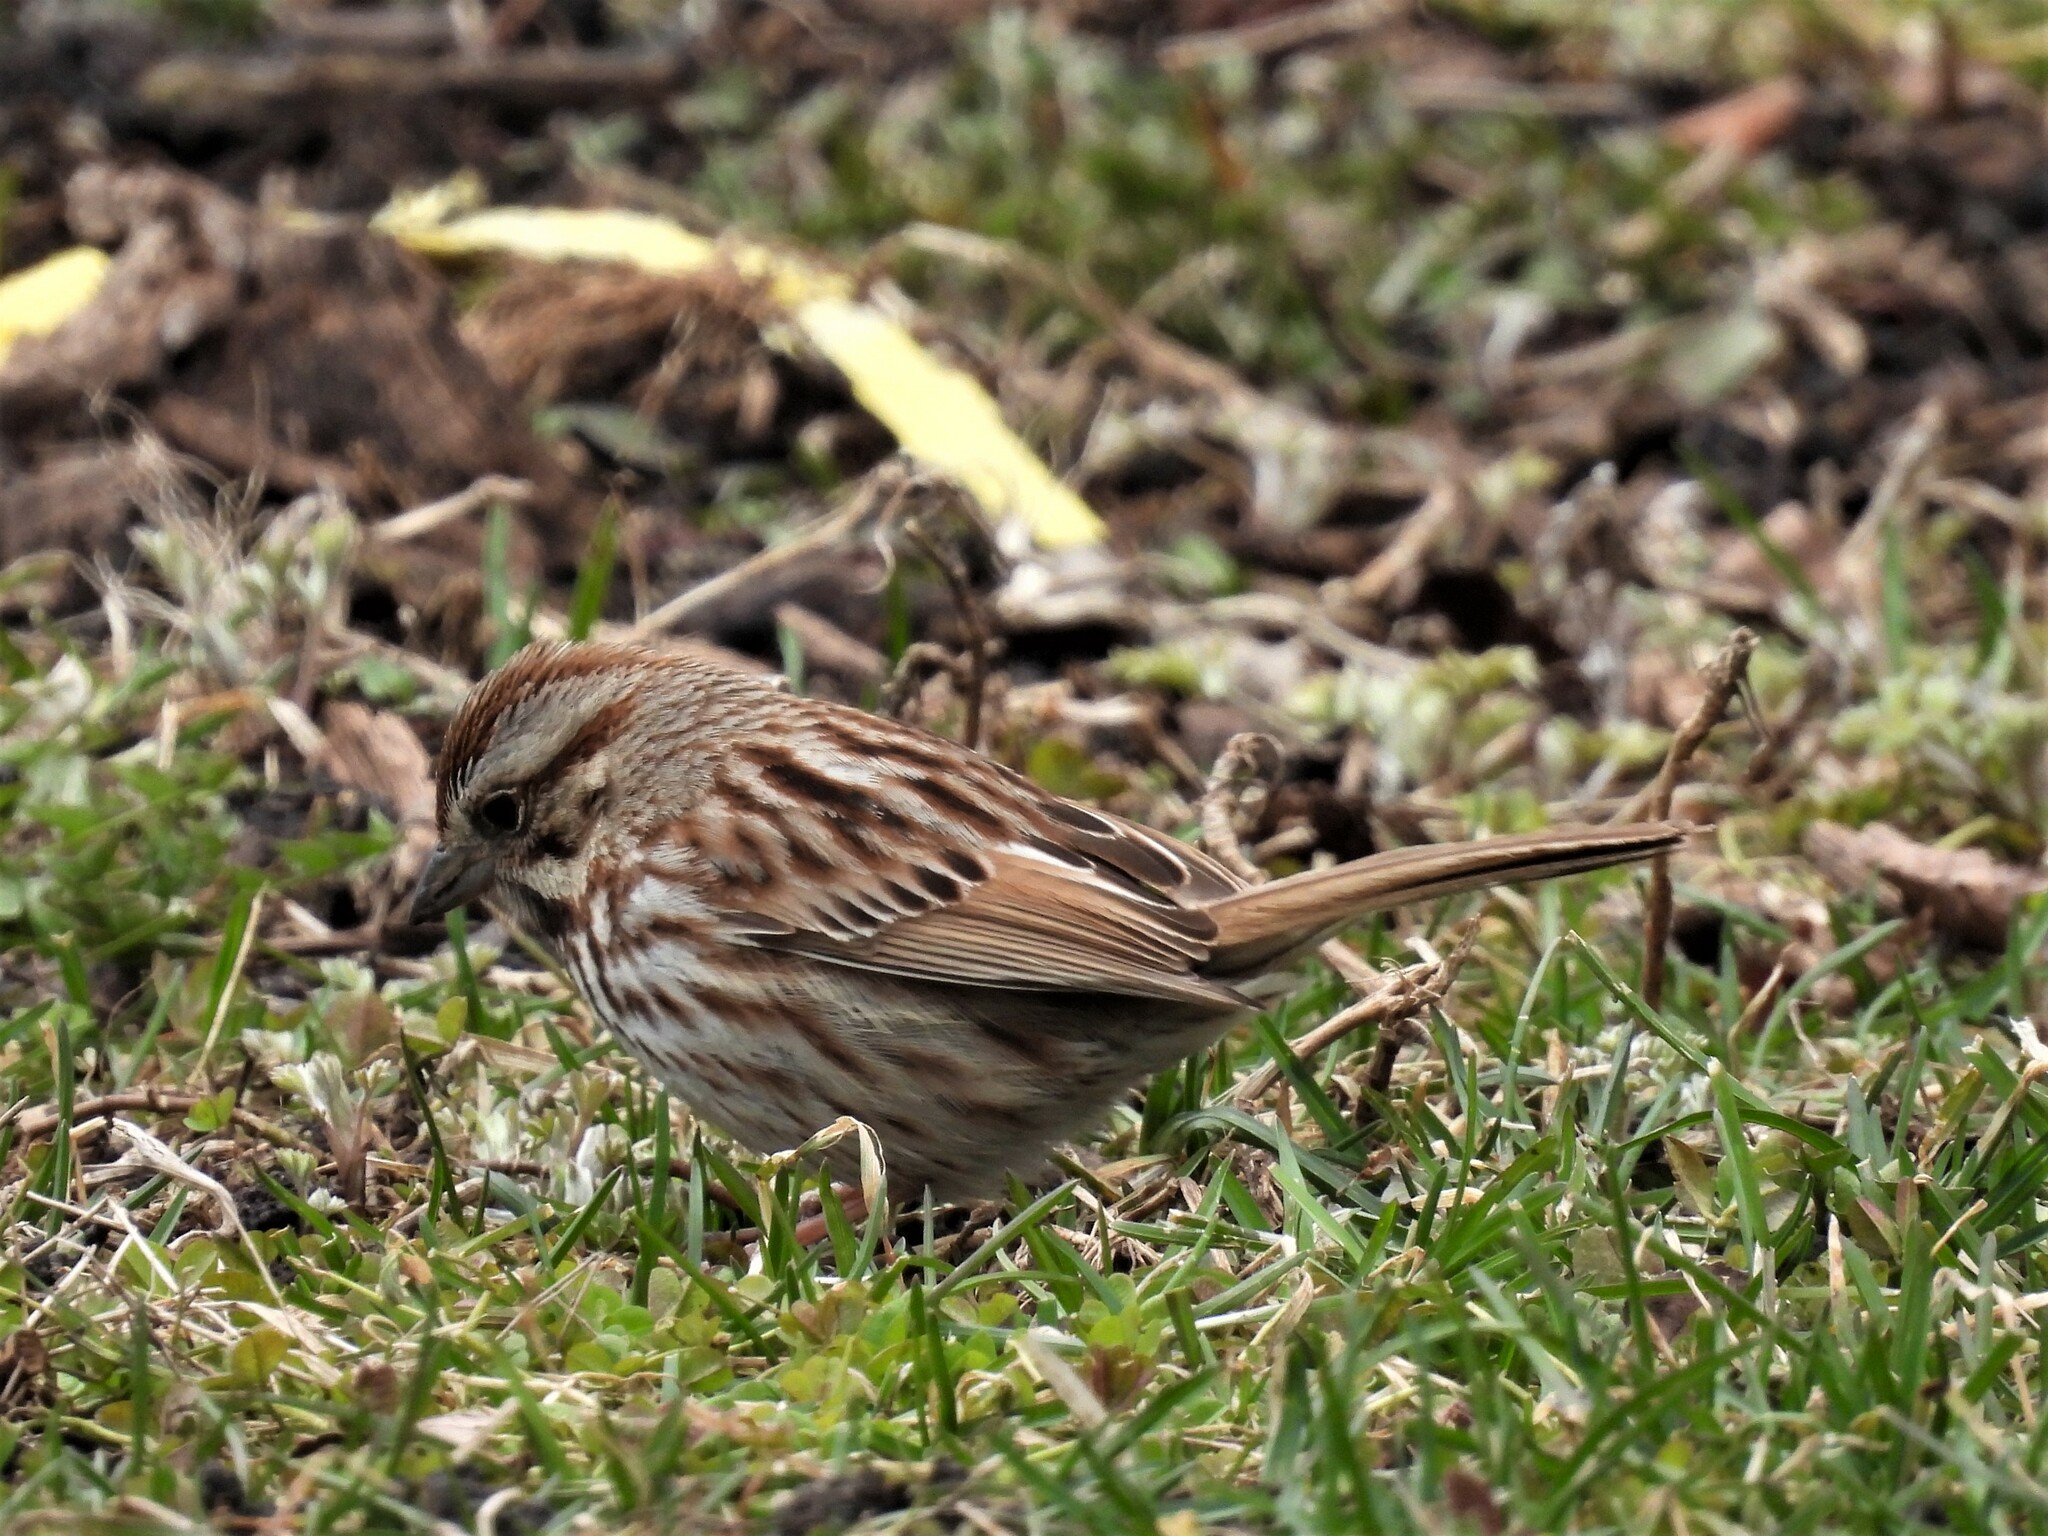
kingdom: Animalia
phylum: Chordata
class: Aves
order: Passeriformes
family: Passerellidae
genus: Melospiza
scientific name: Melospiza melodia
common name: Song sparrow
